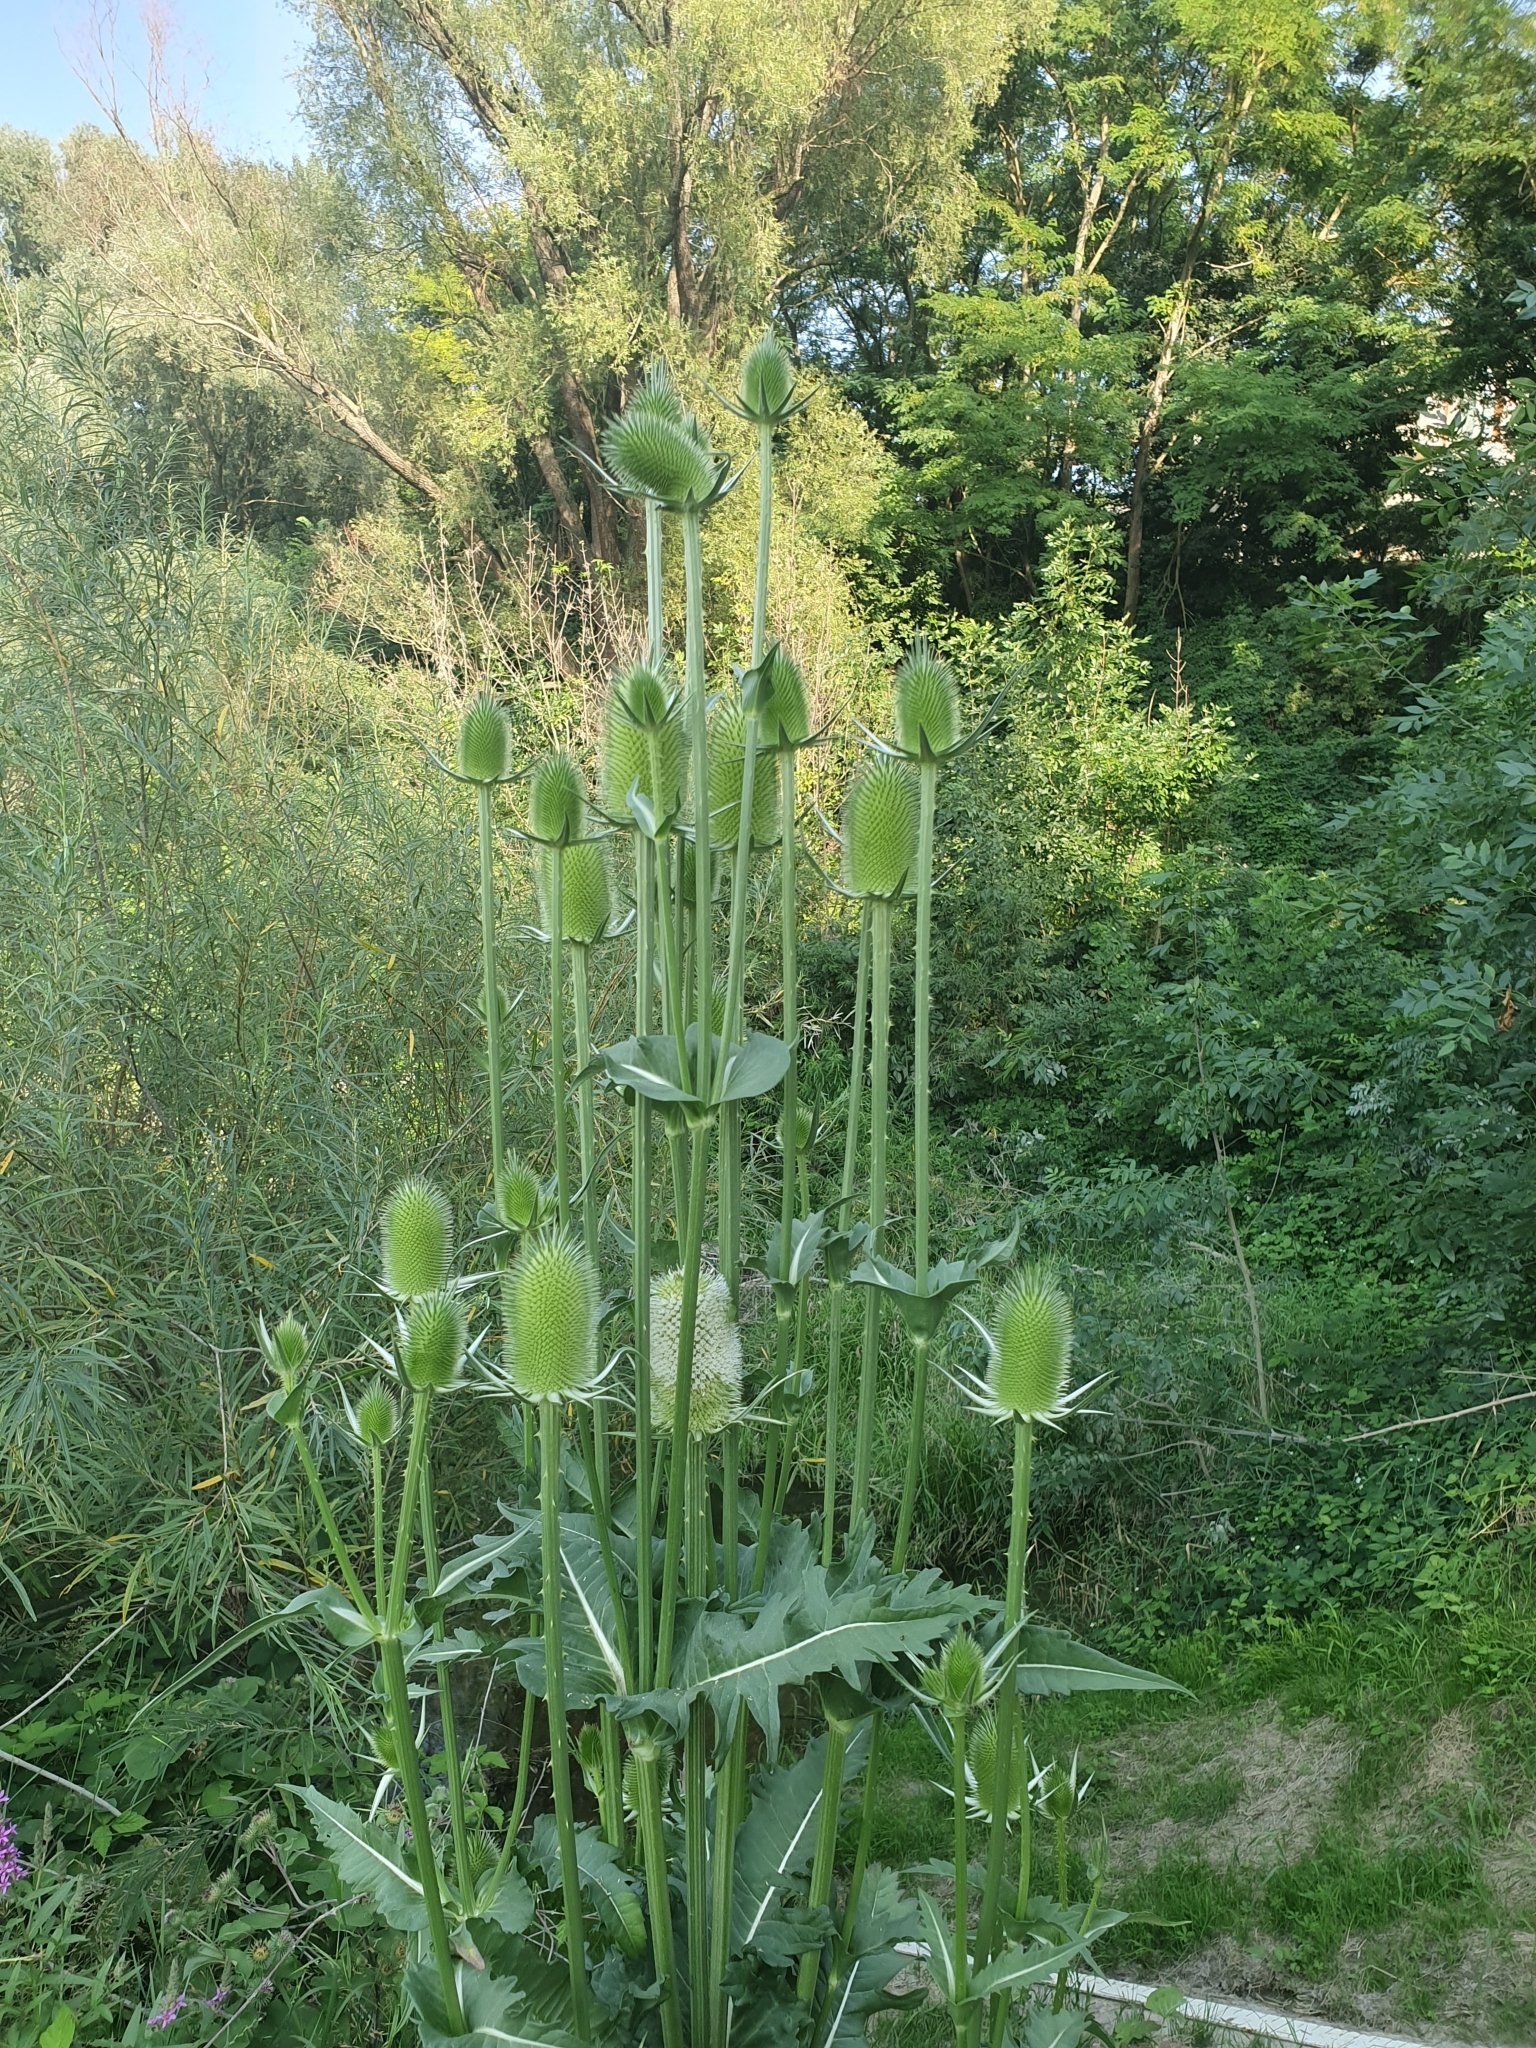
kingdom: Plantae
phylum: Tracheophyta
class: Magnoliopsida
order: Dipsacales
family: Caprifoliaceae
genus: Dipsacus
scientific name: Dipsacus laciniatus
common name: Cut-leaved teasel
